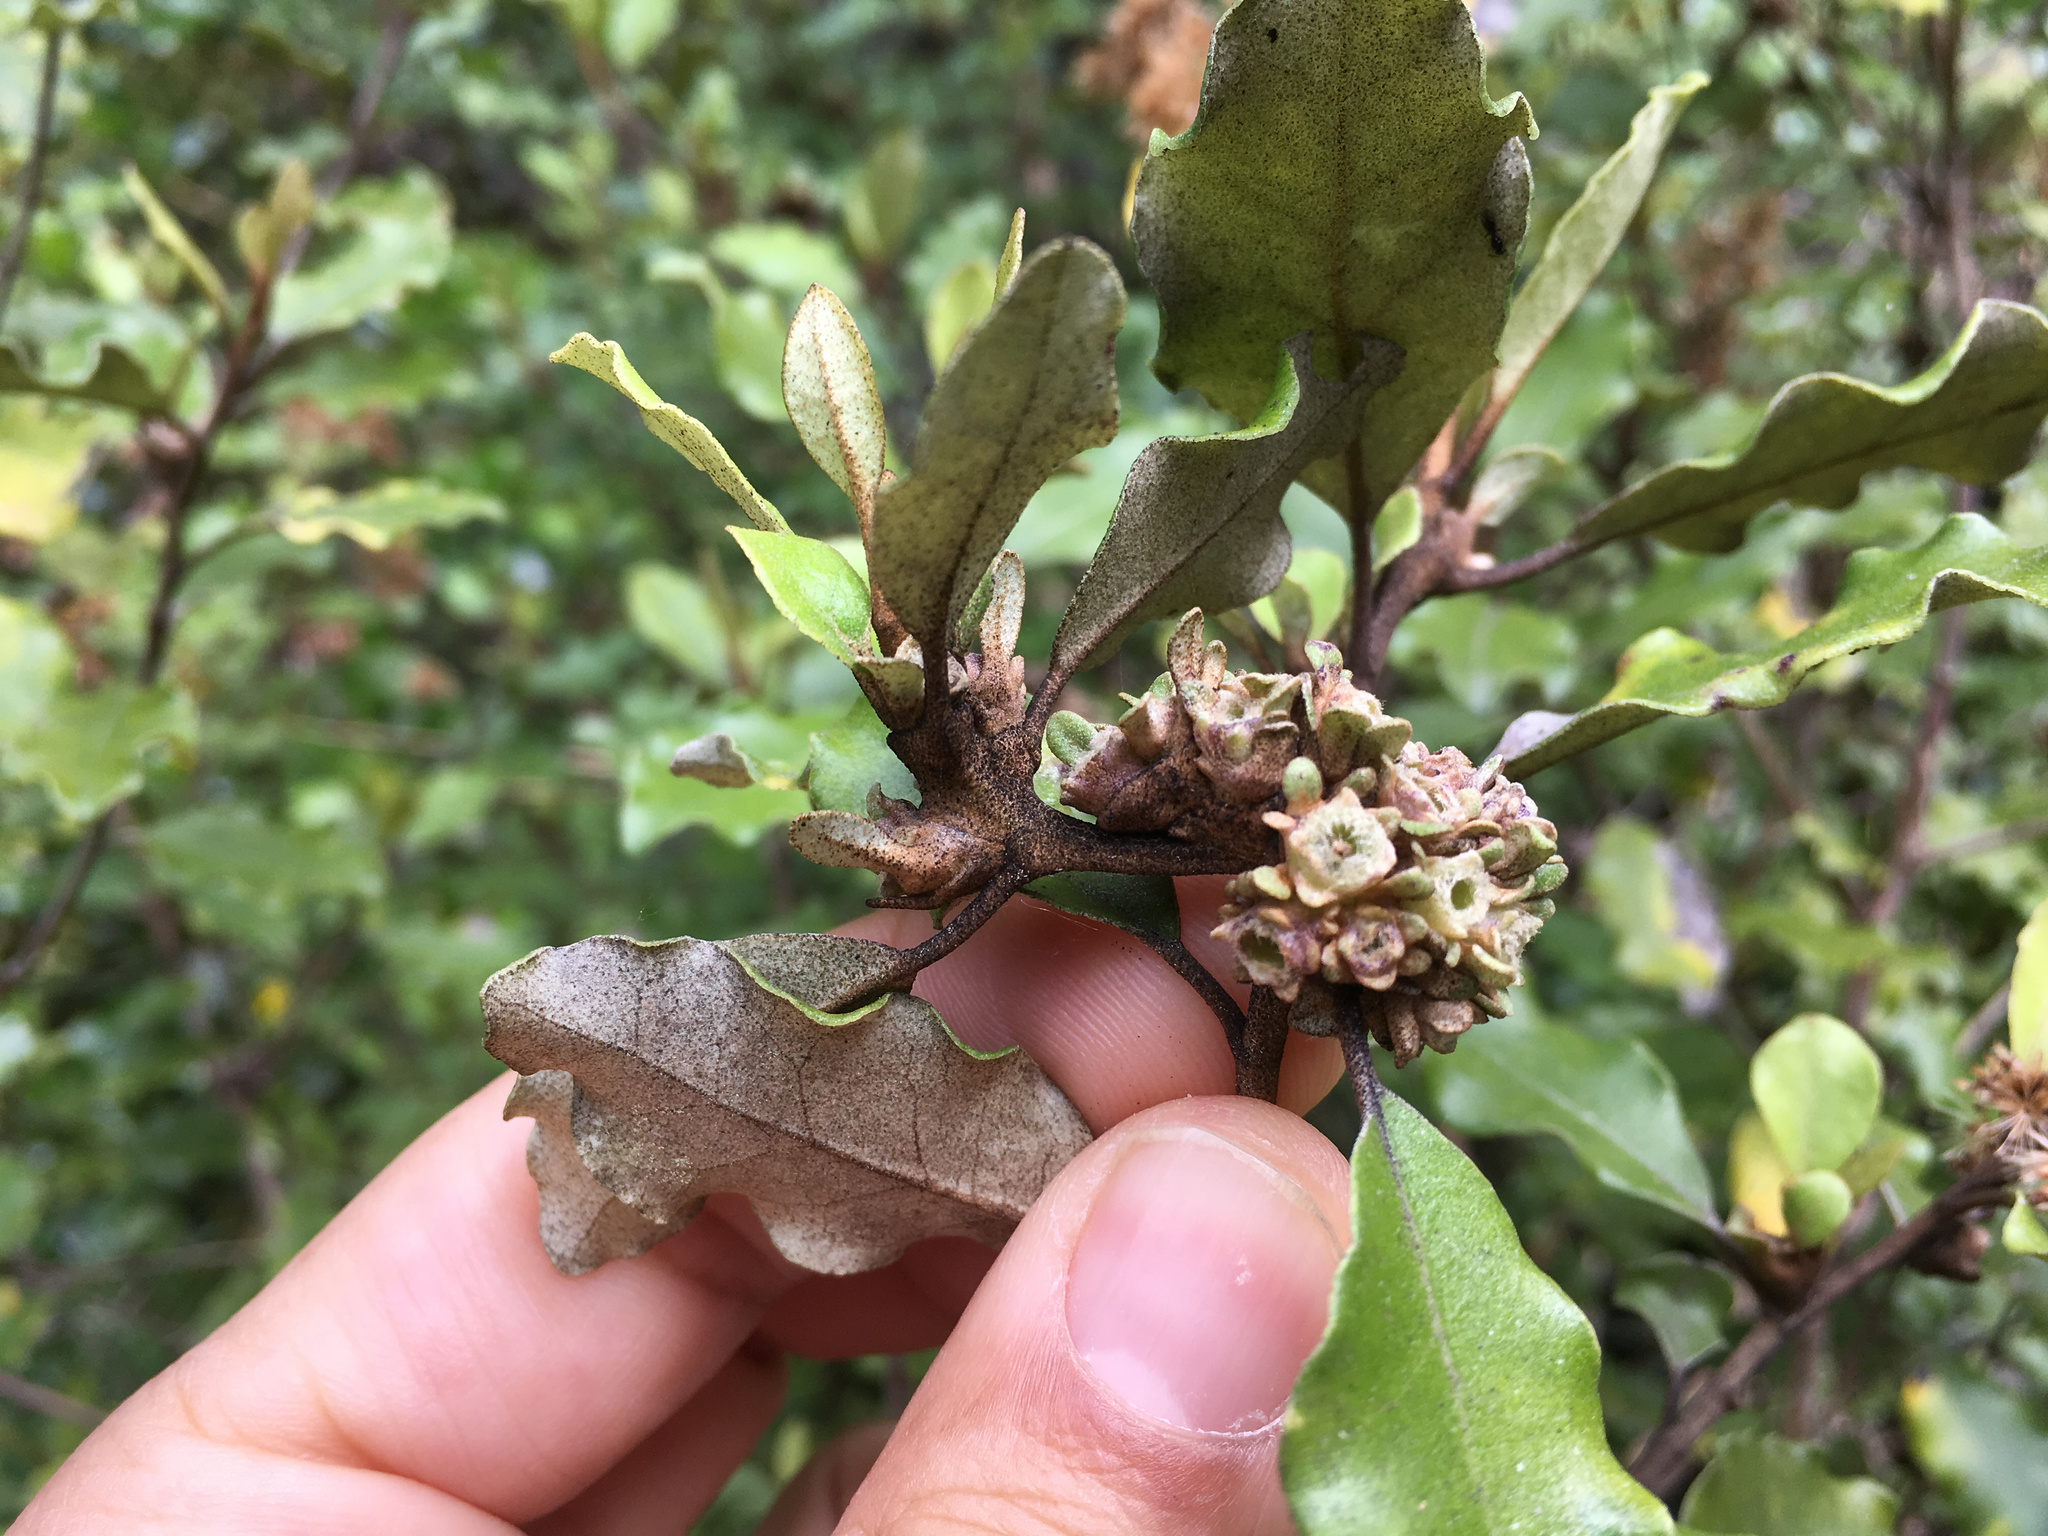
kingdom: Animalia
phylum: Arthropoda
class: Insecta
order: Diptera
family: Cecidomyiidae
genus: Oligotrophus
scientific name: Oligotrophus
